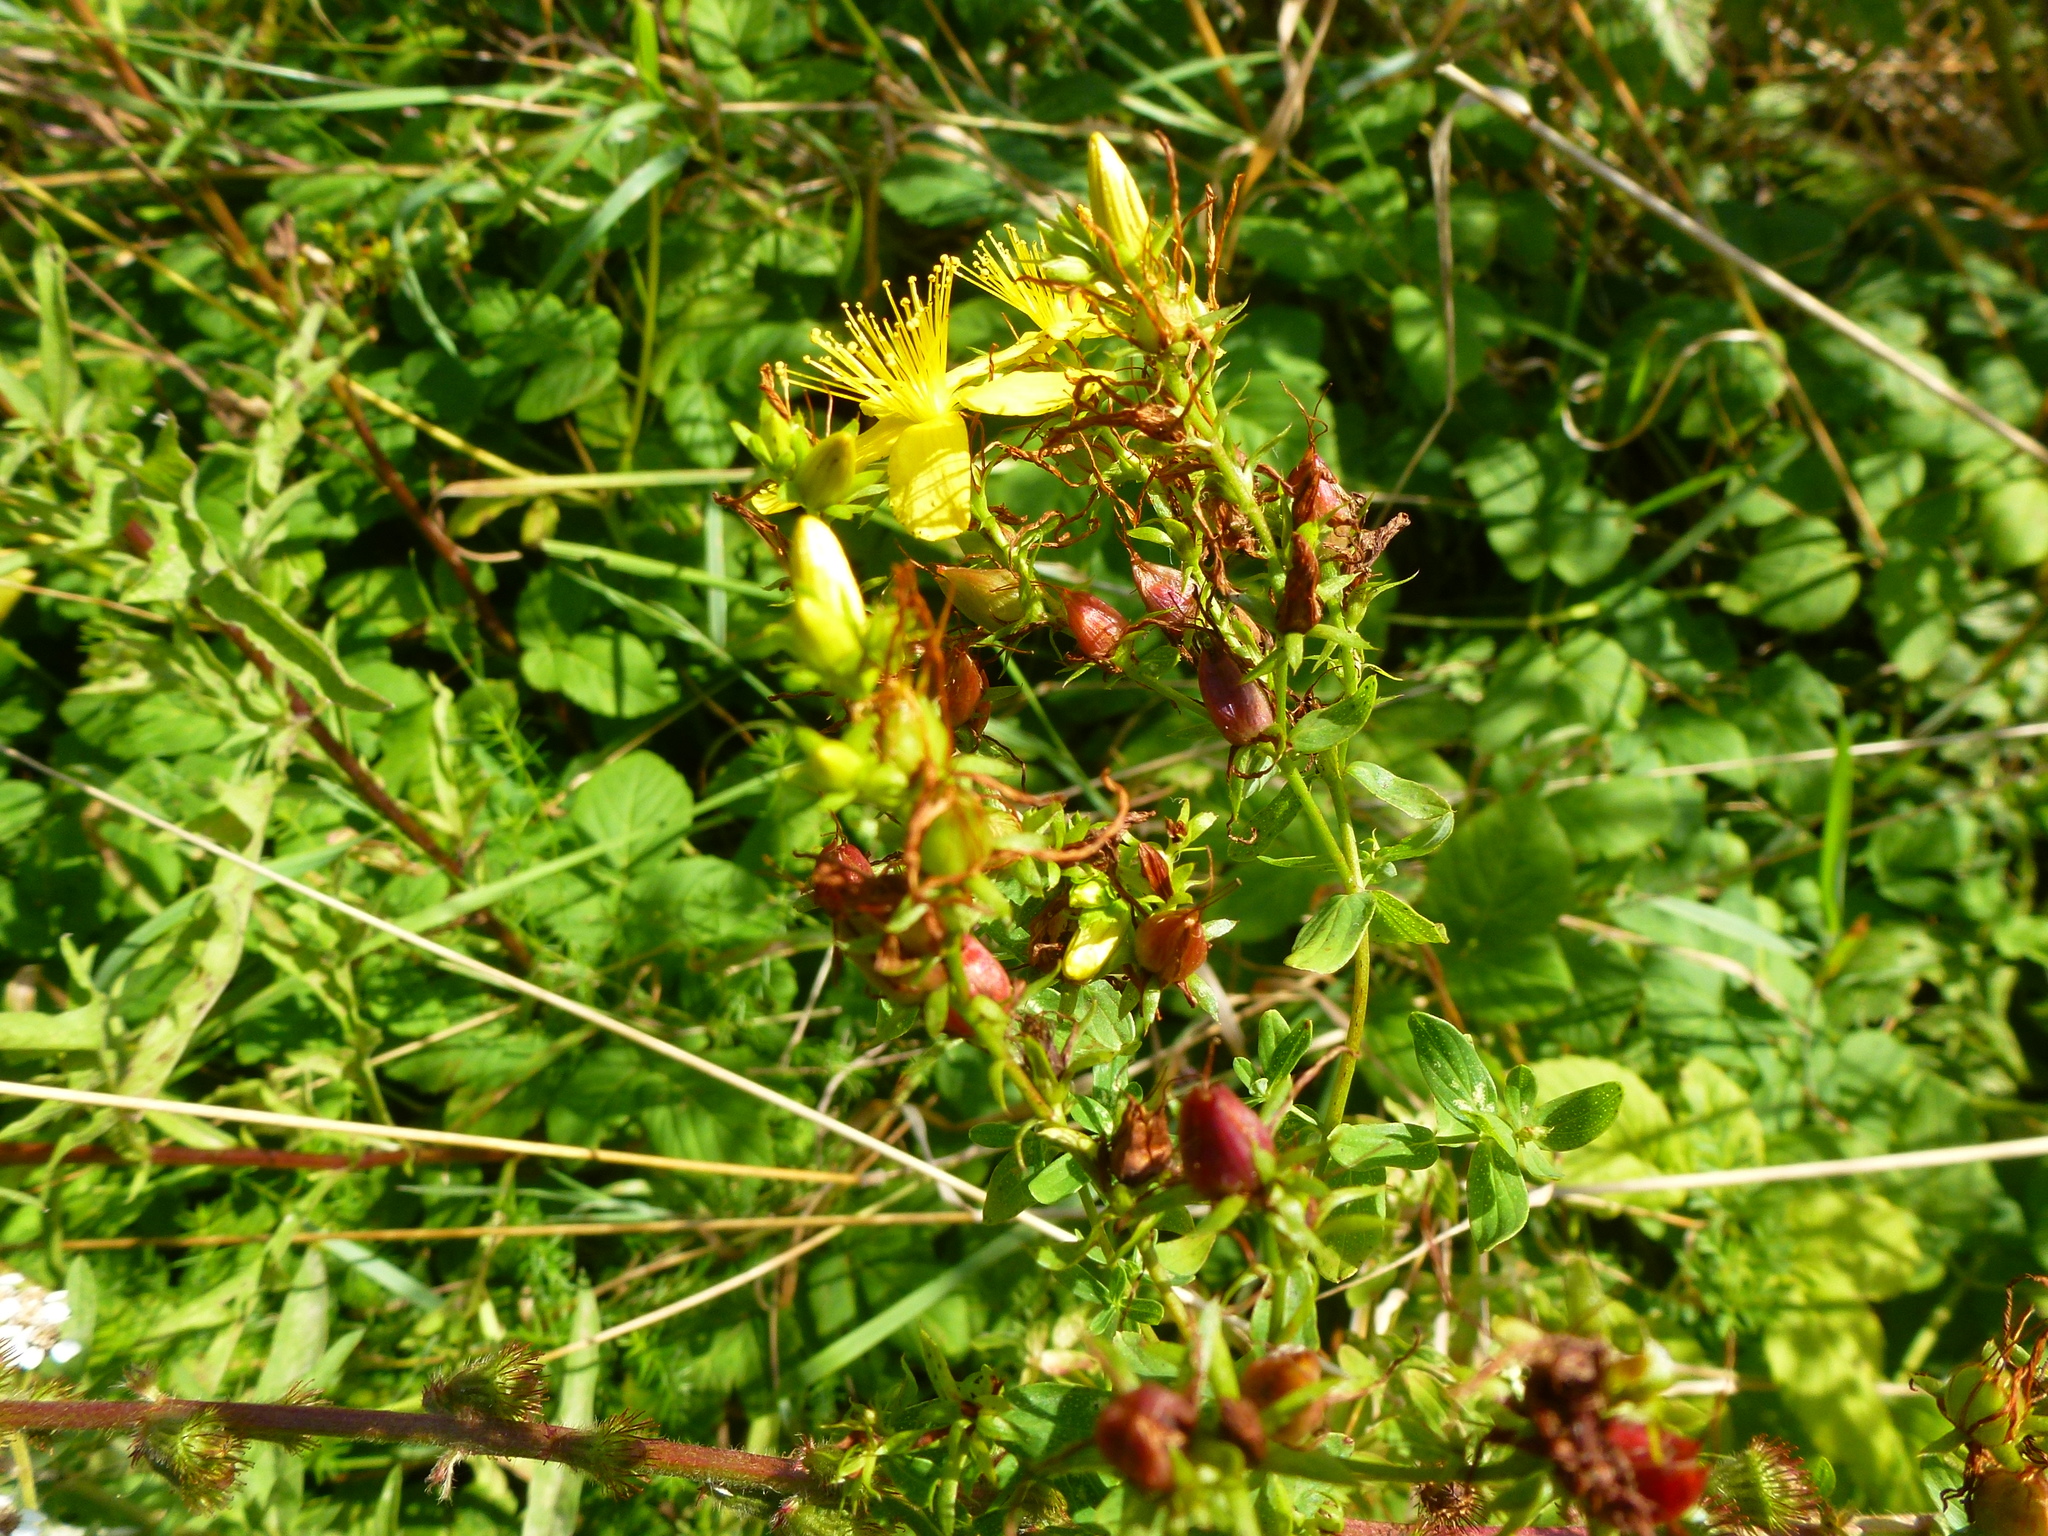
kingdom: Plantae
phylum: Tracheophyta
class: Magnoliopsida
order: Malpighiales
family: Hypericaceae
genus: Hypericum
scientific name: Hypericum perforatum
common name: Common st. johnswort
